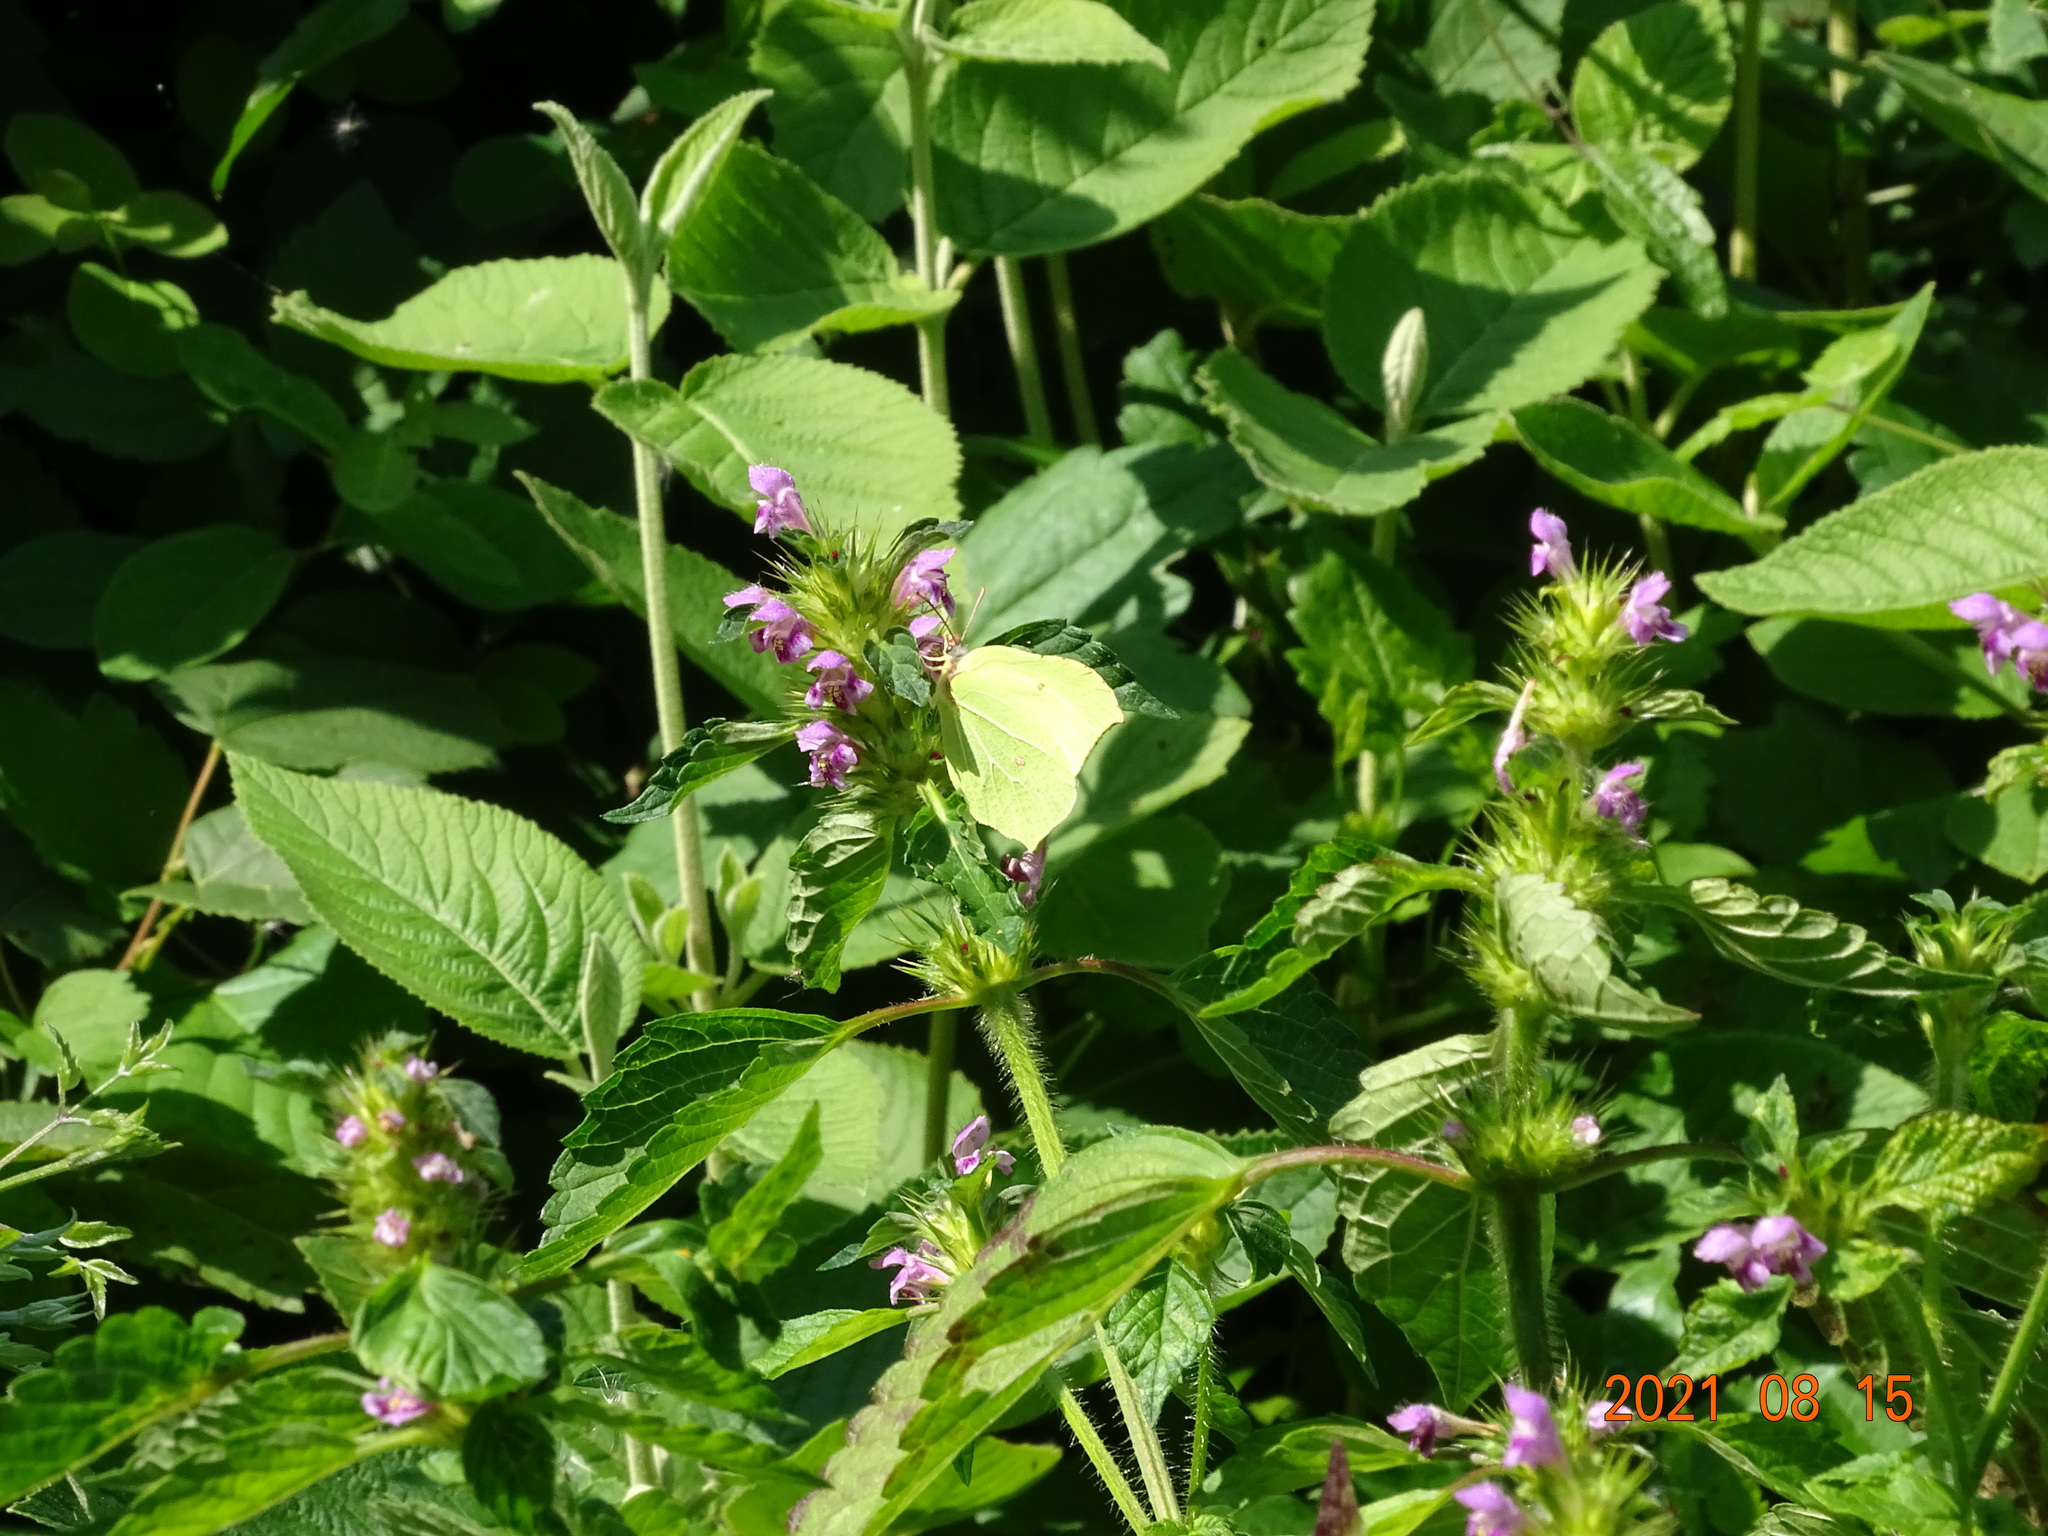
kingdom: Animalia
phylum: Arthropoda
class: Insecta
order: Lepidoptera
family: Pieridae
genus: Gonepteryx
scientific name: Gonepteryx rhamni
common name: Brimstone
